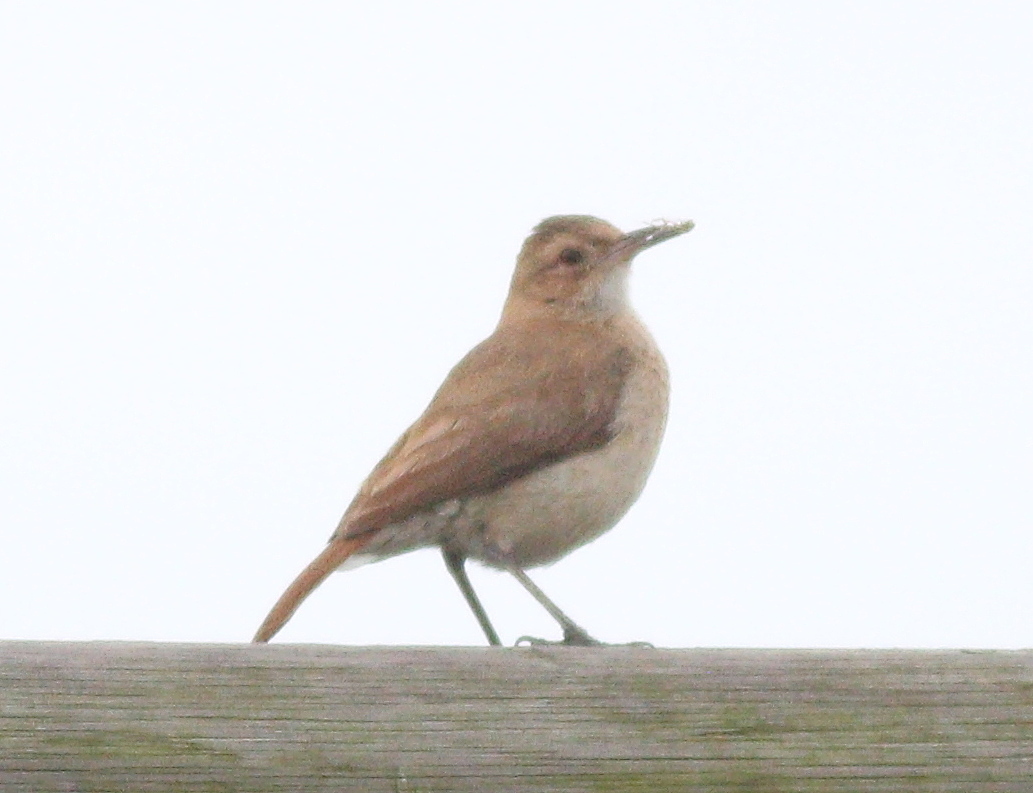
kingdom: Animalia
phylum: Chordata
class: Aves
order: Passeriformes
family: Furnariidae
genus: Furnarius
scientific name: Furnarius rufus
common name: Rufous hornero
